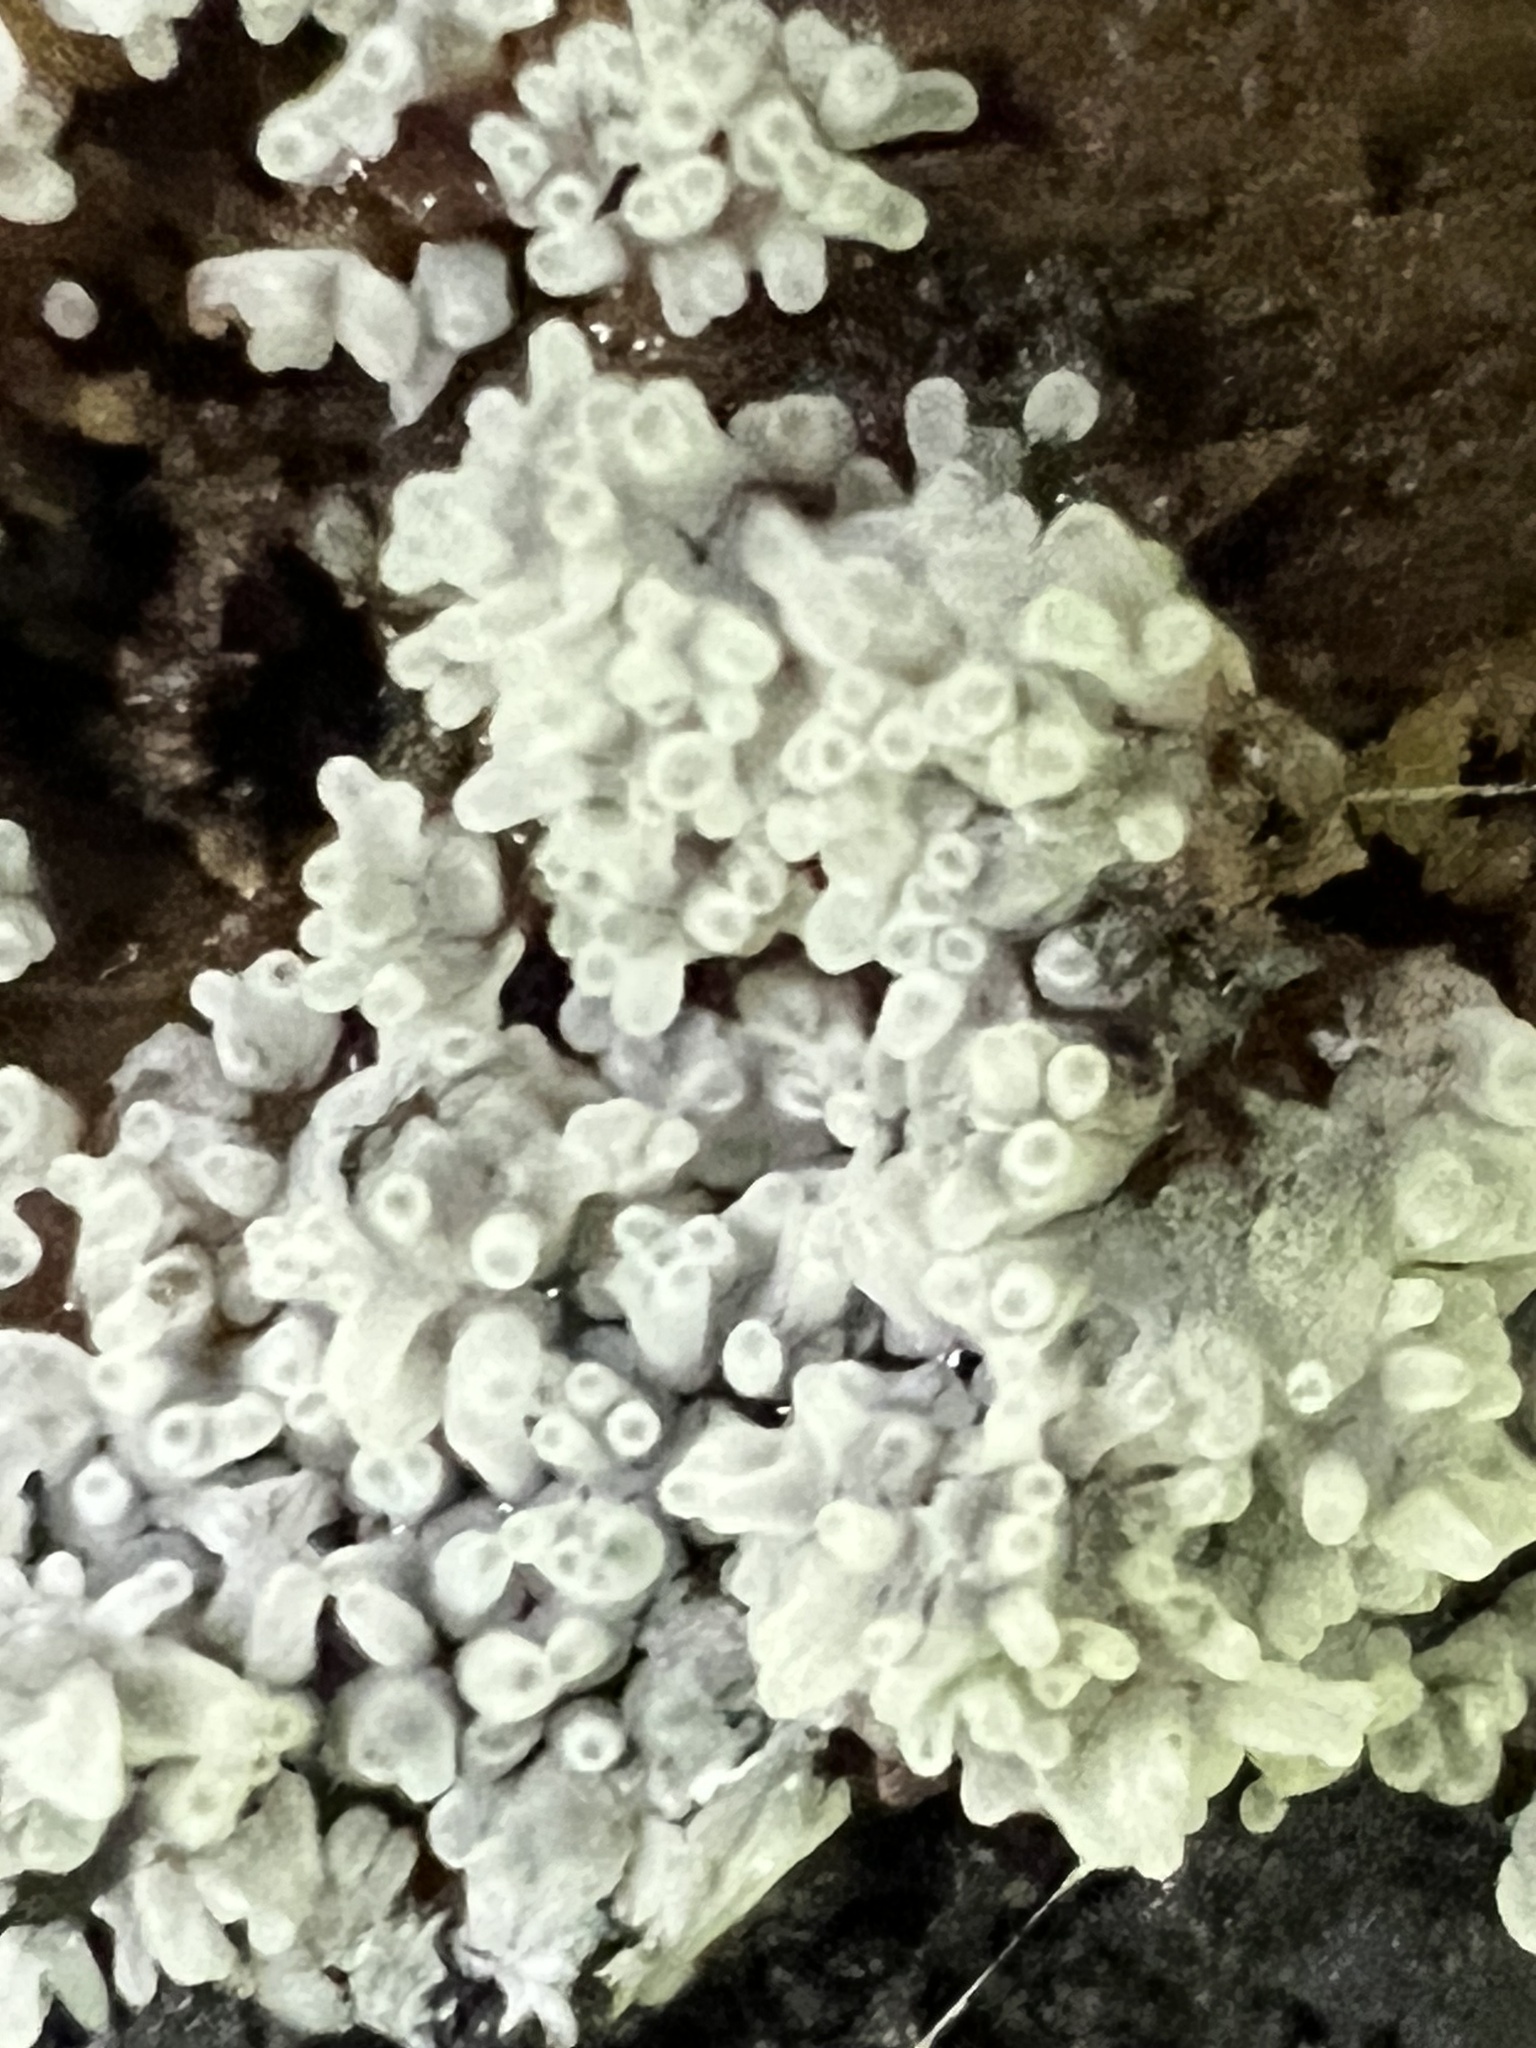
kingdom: Protozoa
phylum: Mycetozoa
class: Protosteliomycetes
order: Ceratiomyxales
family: Ceratiomyxaceae
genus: Ceratiomyxa
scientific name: Ceratiomyxa fruticulosa
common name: Honeycomb coral slime mold
